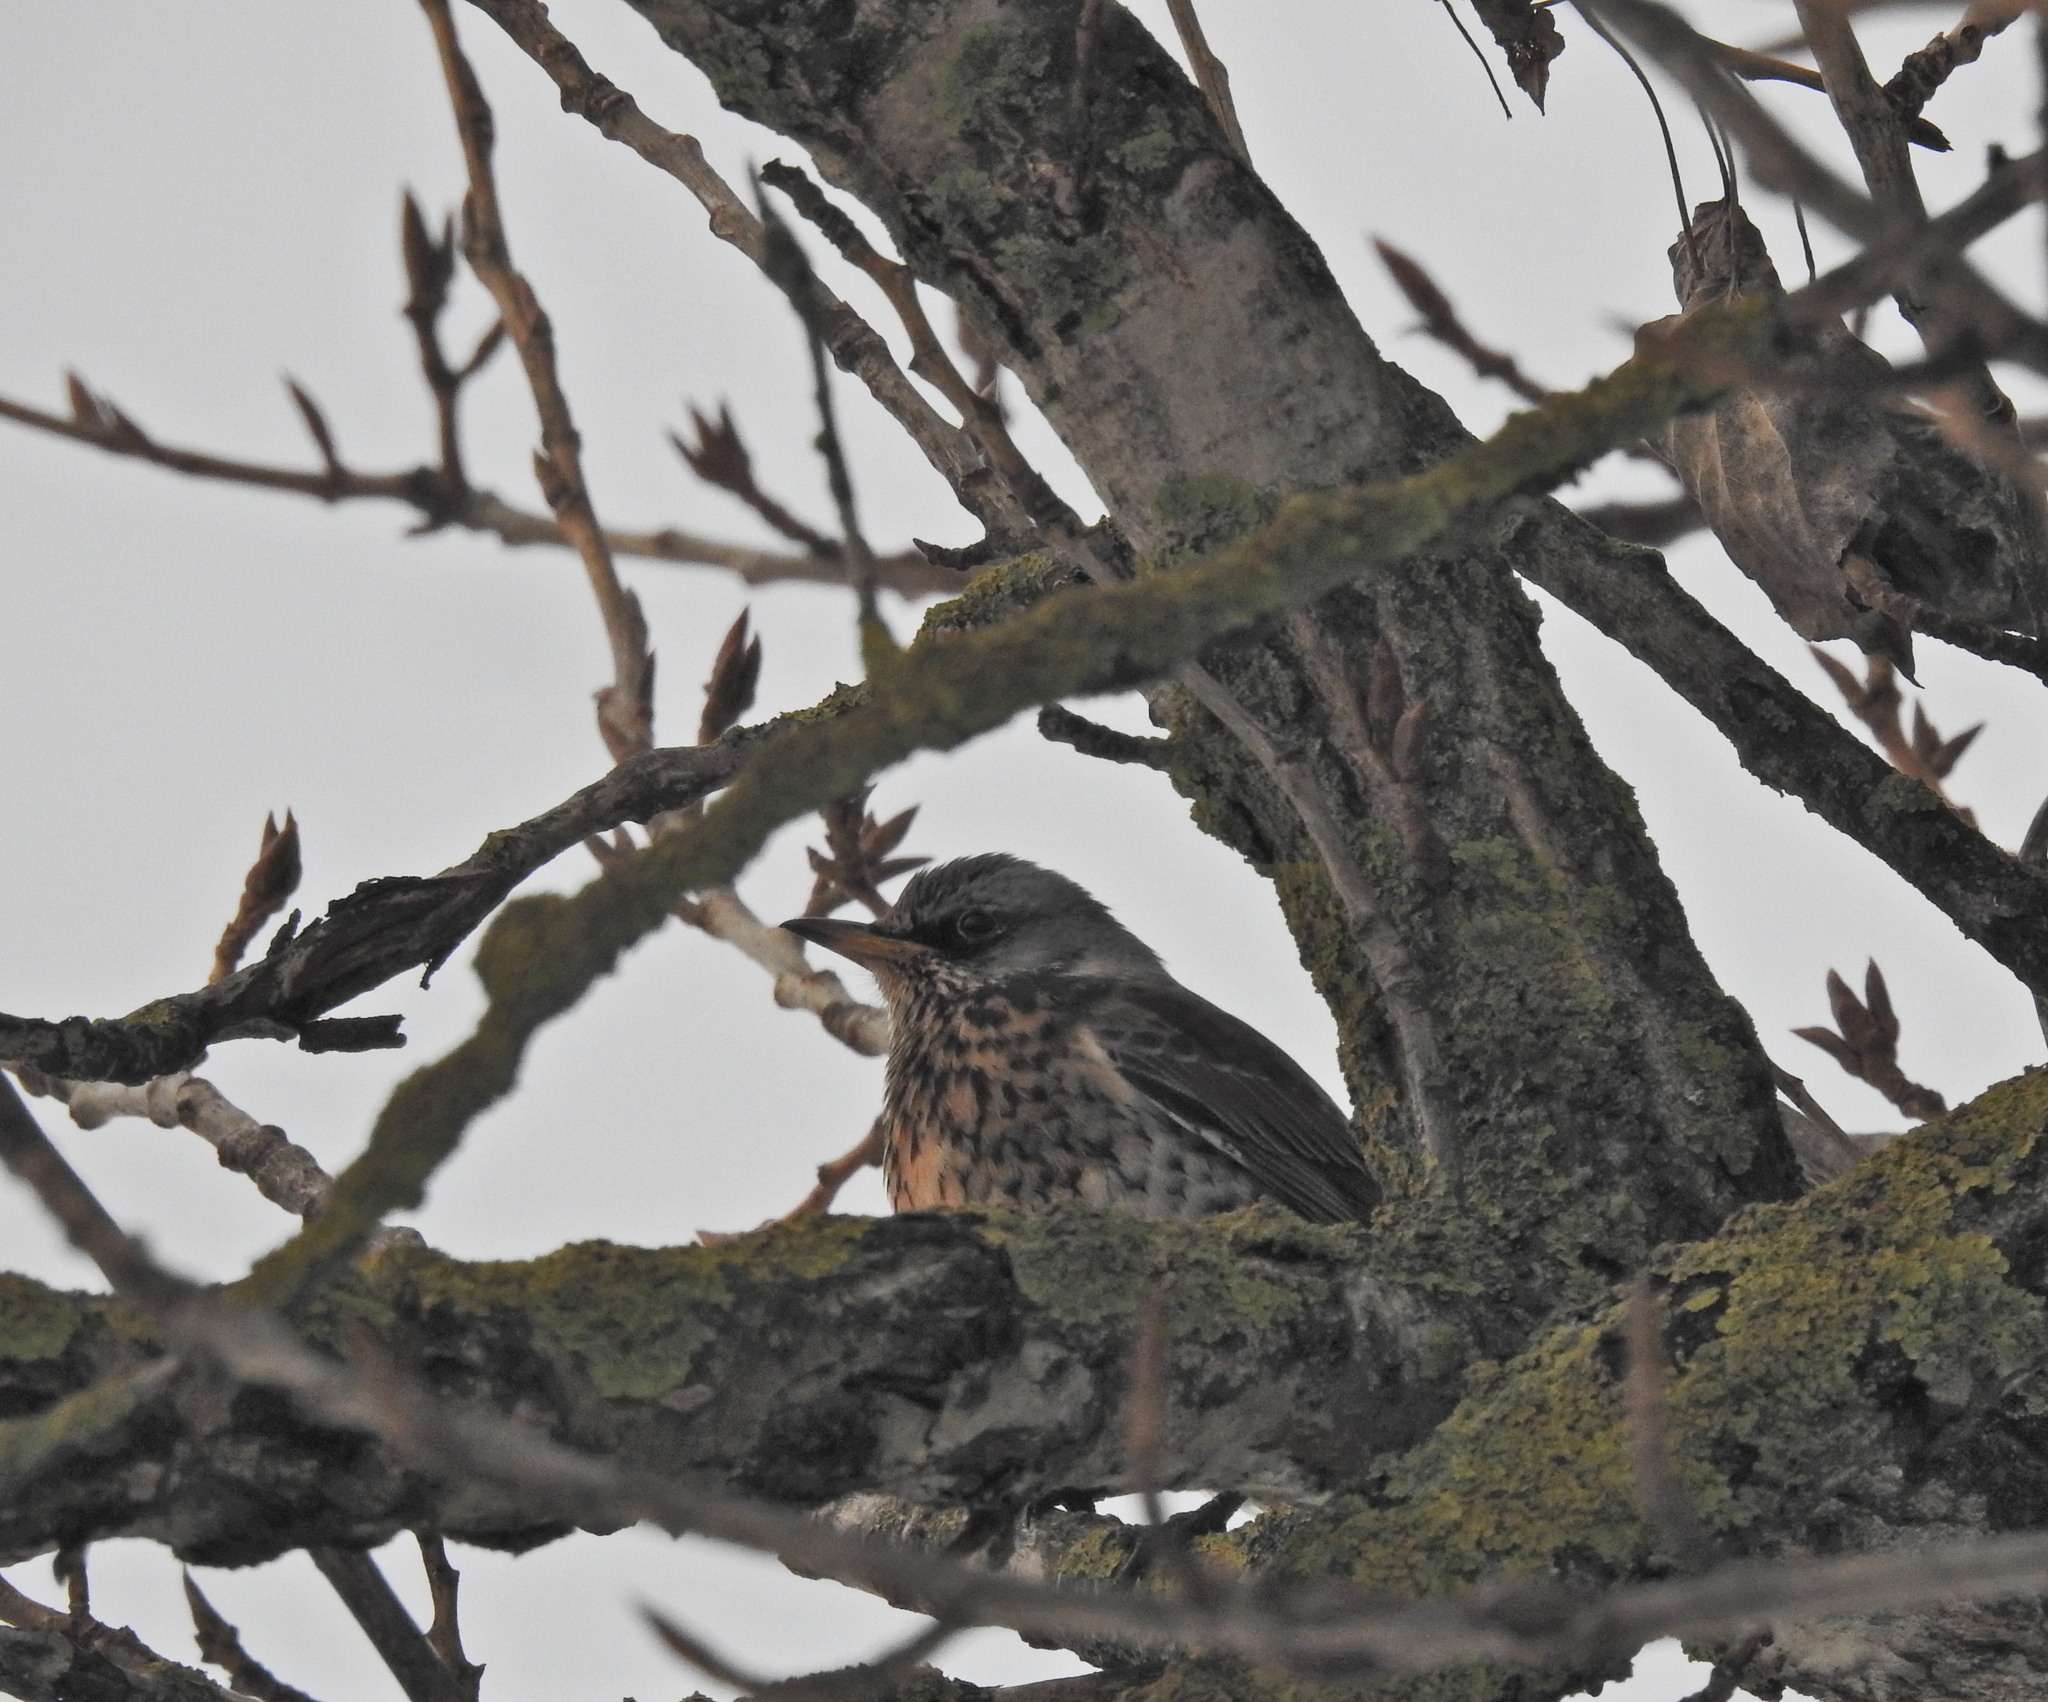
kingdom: Animalia
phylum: Chordata
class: Aves
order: Passeriformes
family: Turdidae
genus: Turdus
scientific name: Turdus pilaris
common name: Fieldfare
